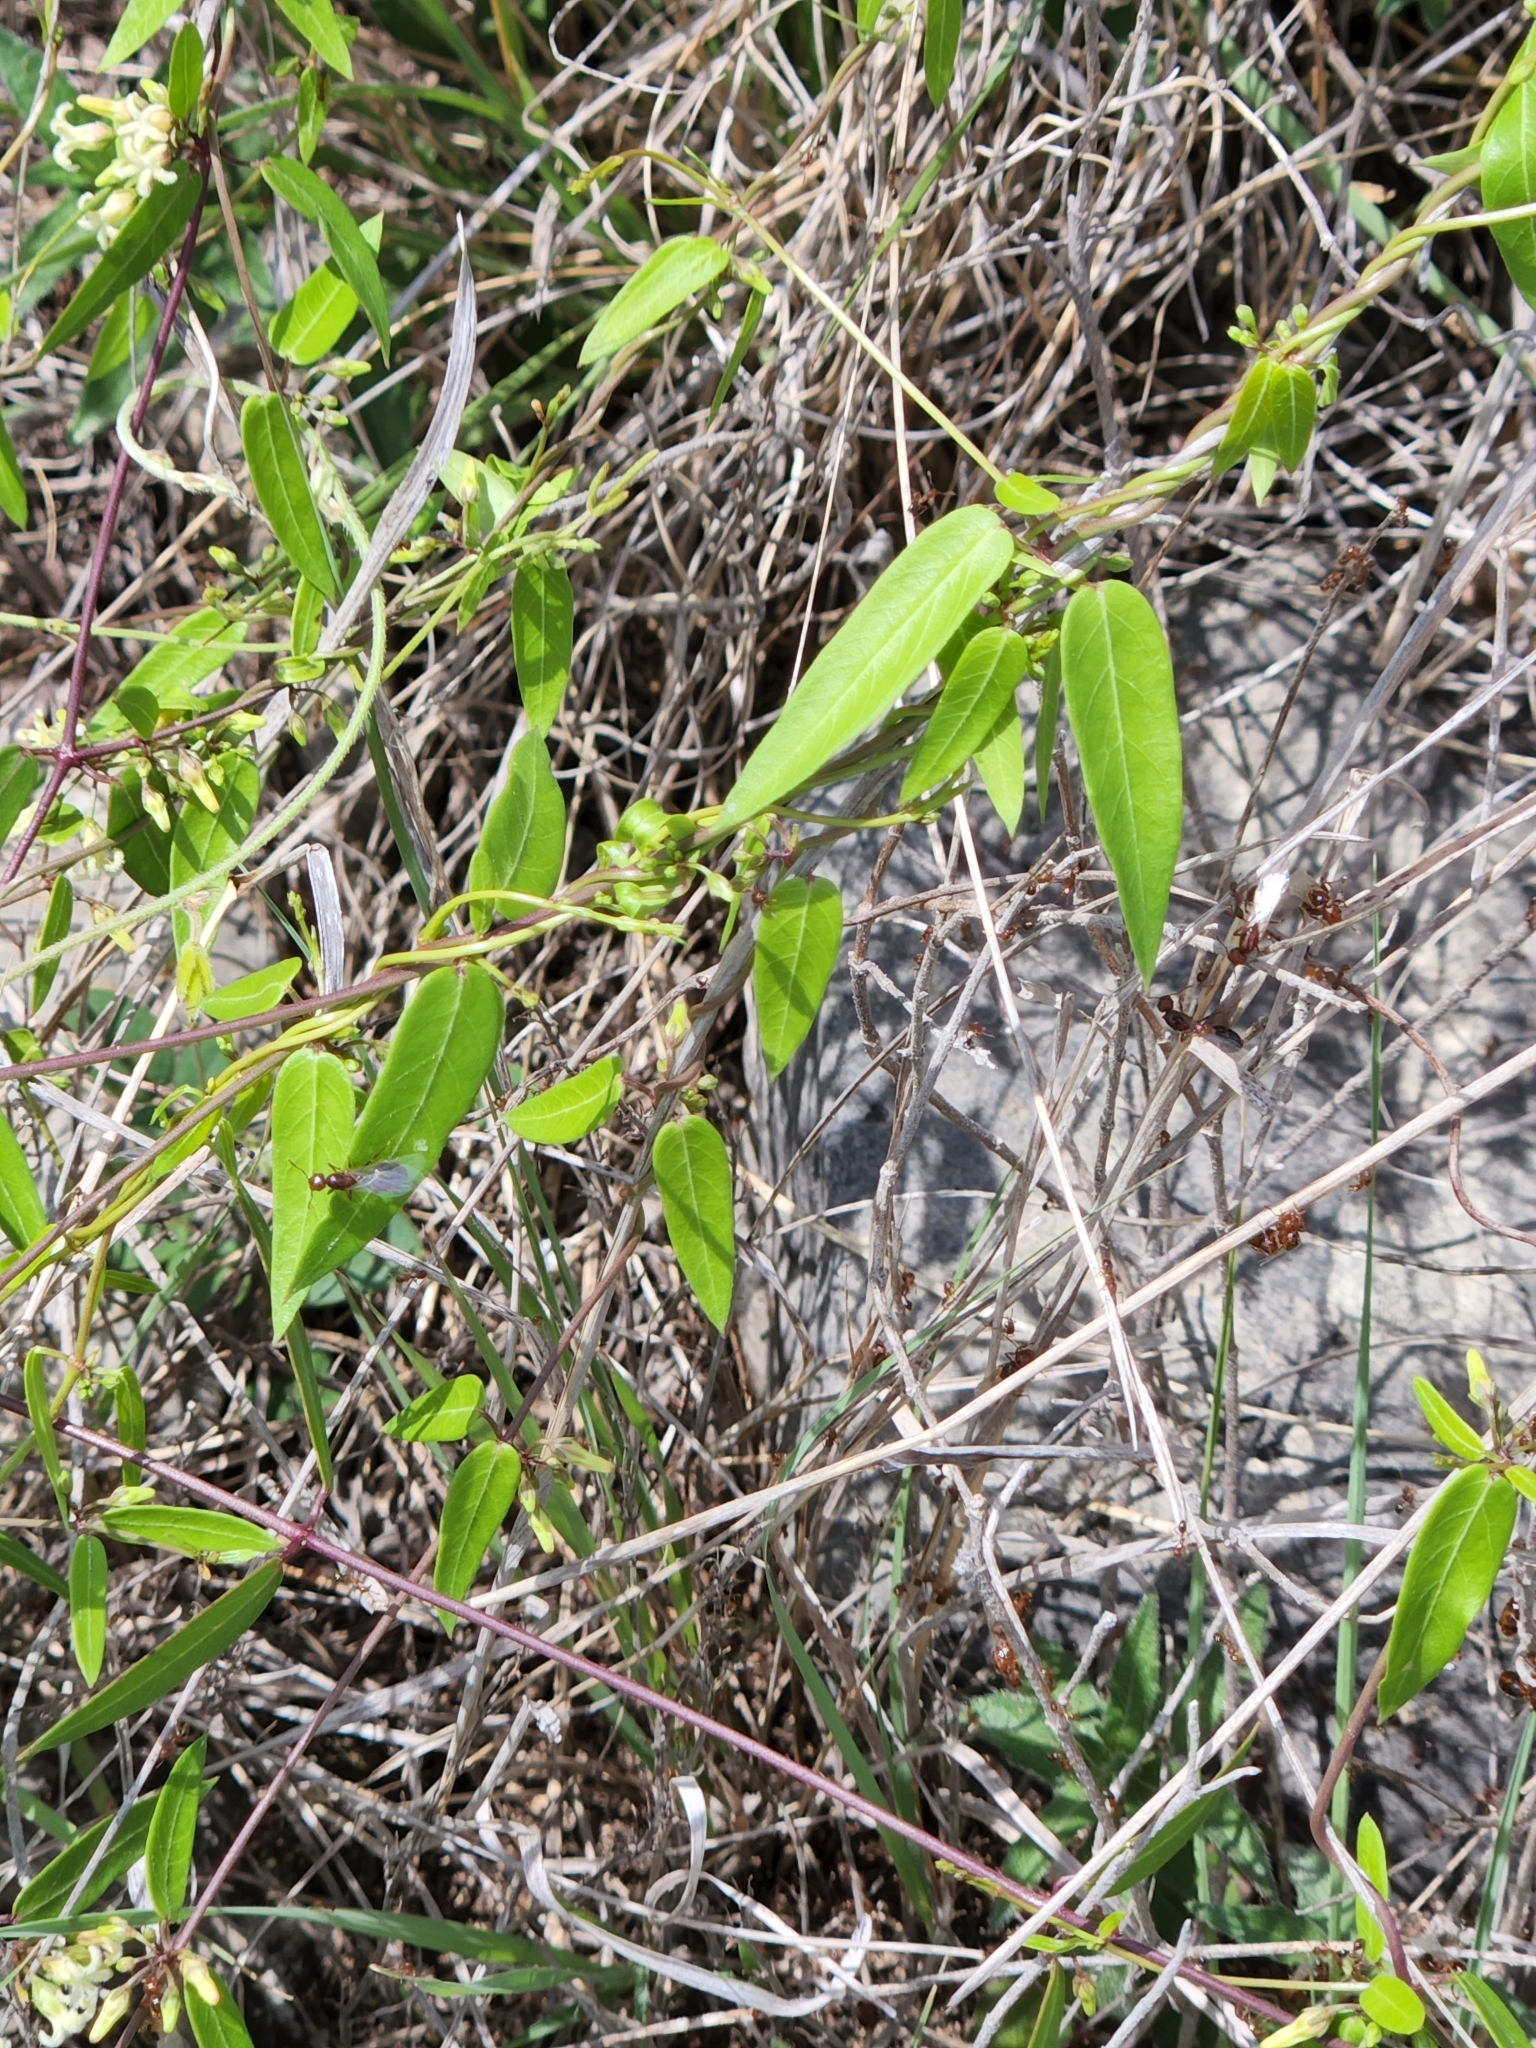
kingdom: Plantae
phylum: Tracheophyta
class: Magnoliopsida
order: Gentianales
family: Apocynaceae
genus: Metastelma
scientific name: Metastelma barbigerum
